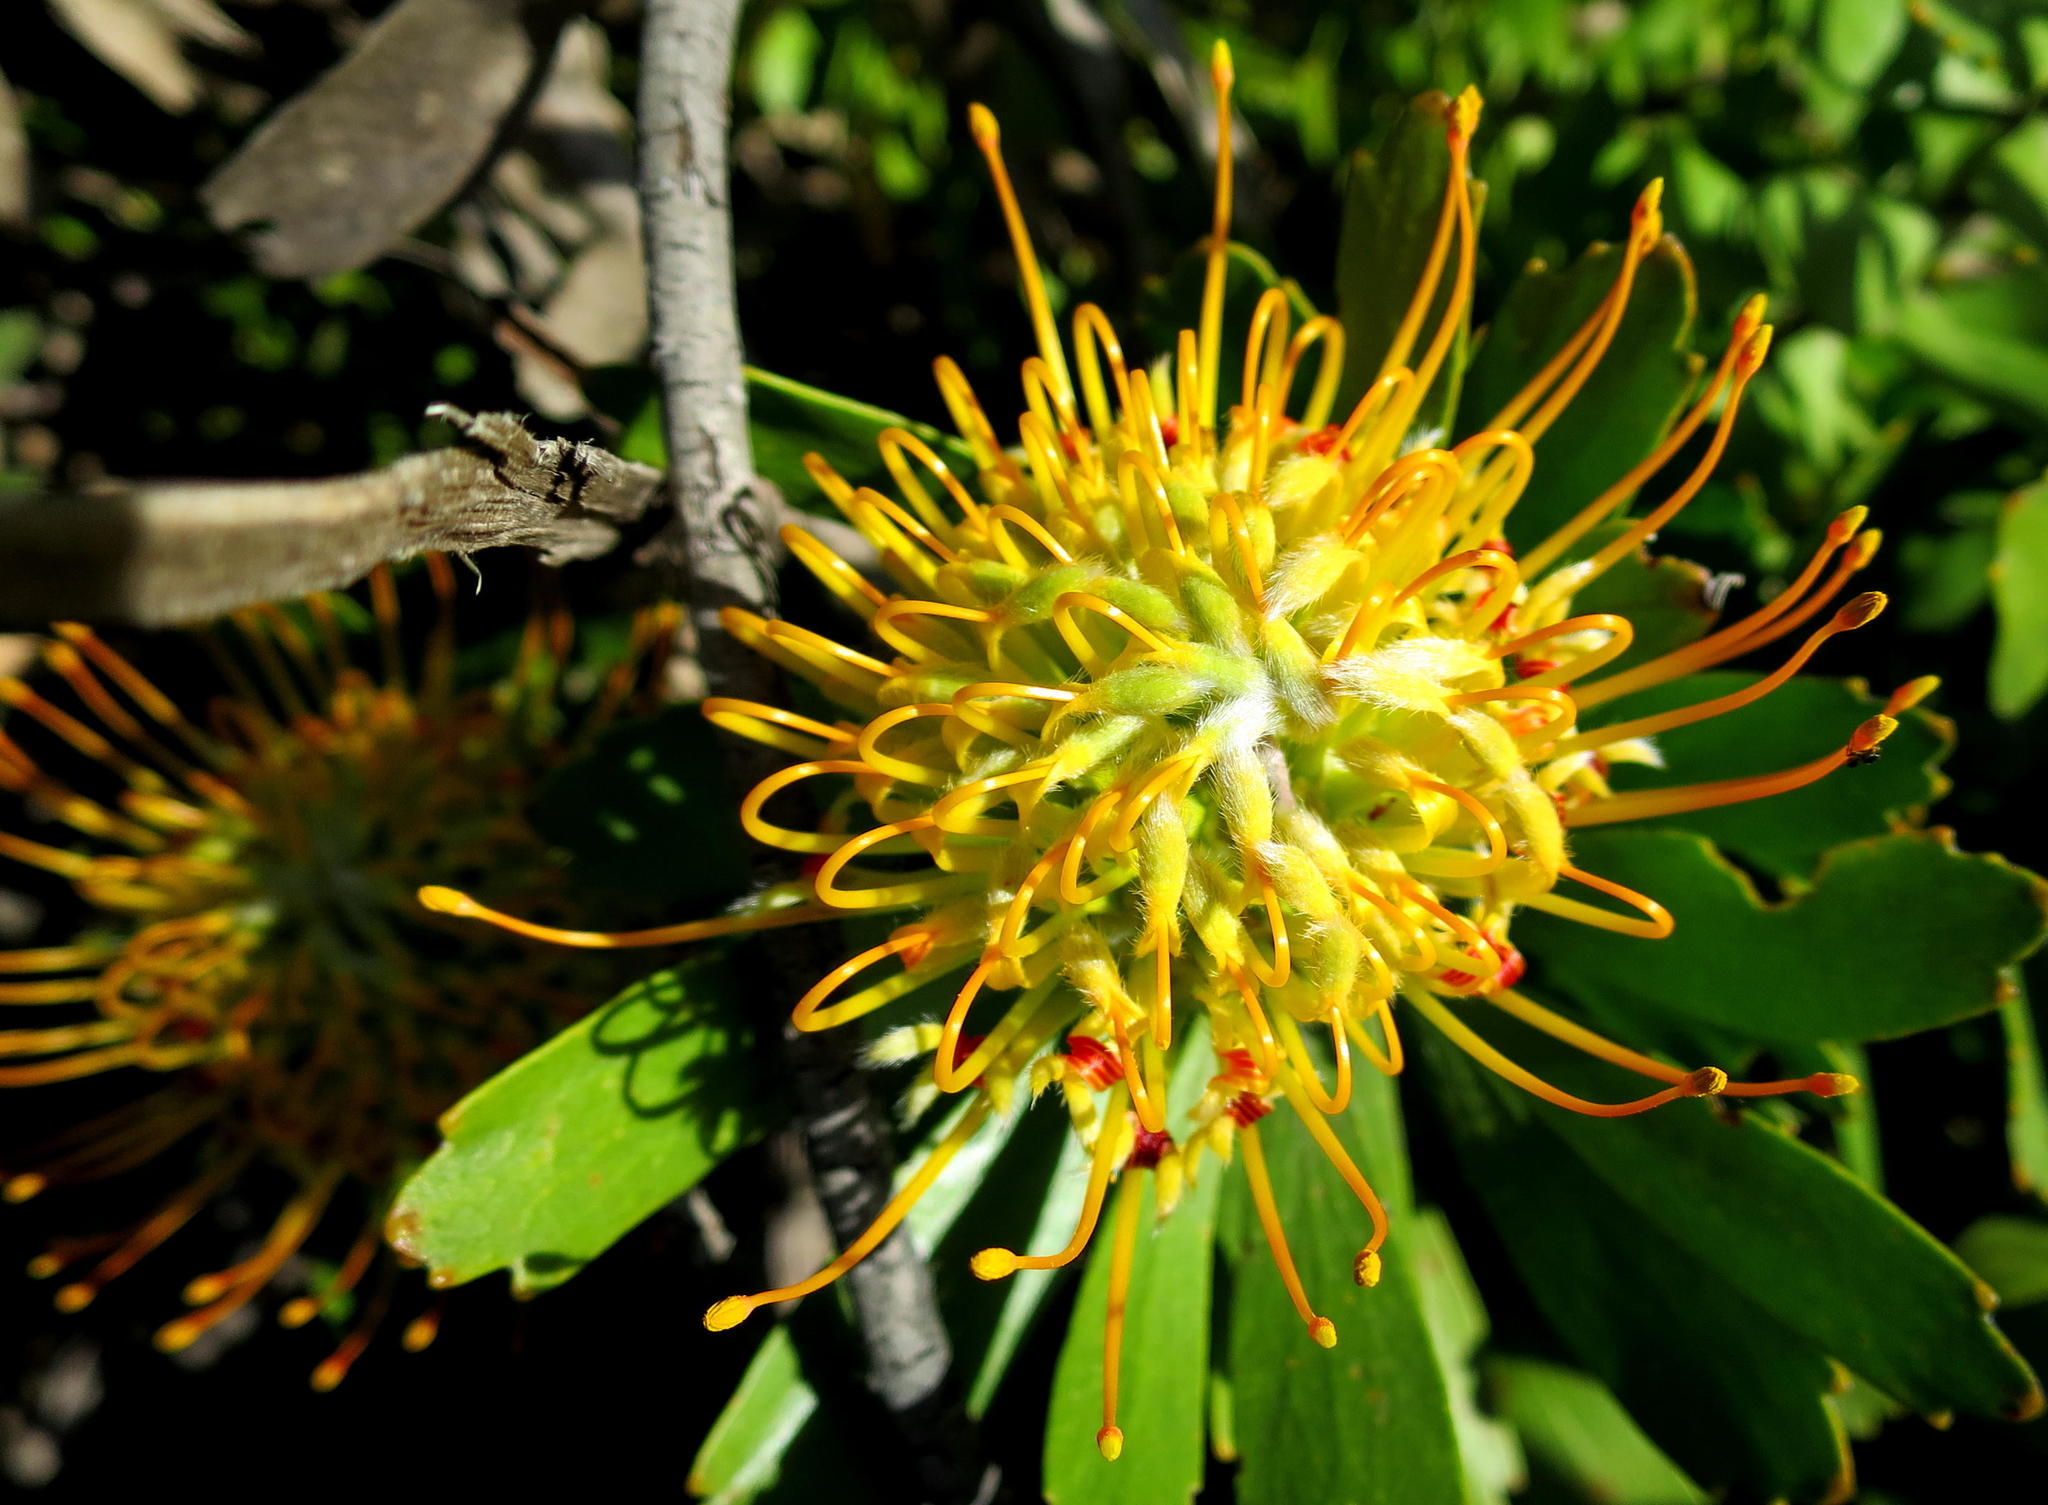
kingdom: Plantae
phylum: Tracheophyta
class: Magnoliopsida
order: Proteales
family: Proteaceae
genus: Leucospermum
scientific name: Leucospermum praecox
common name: Mossel bay pincushion
